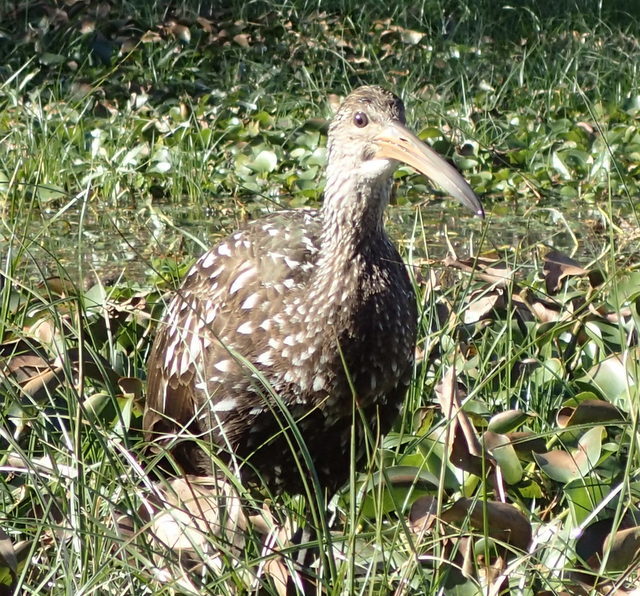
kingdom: Animalia
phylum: Chordata
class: Aves
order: Gruiformes
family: Aramidae
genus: Aramus
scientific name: Aramus guarauna
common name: Limpkin
